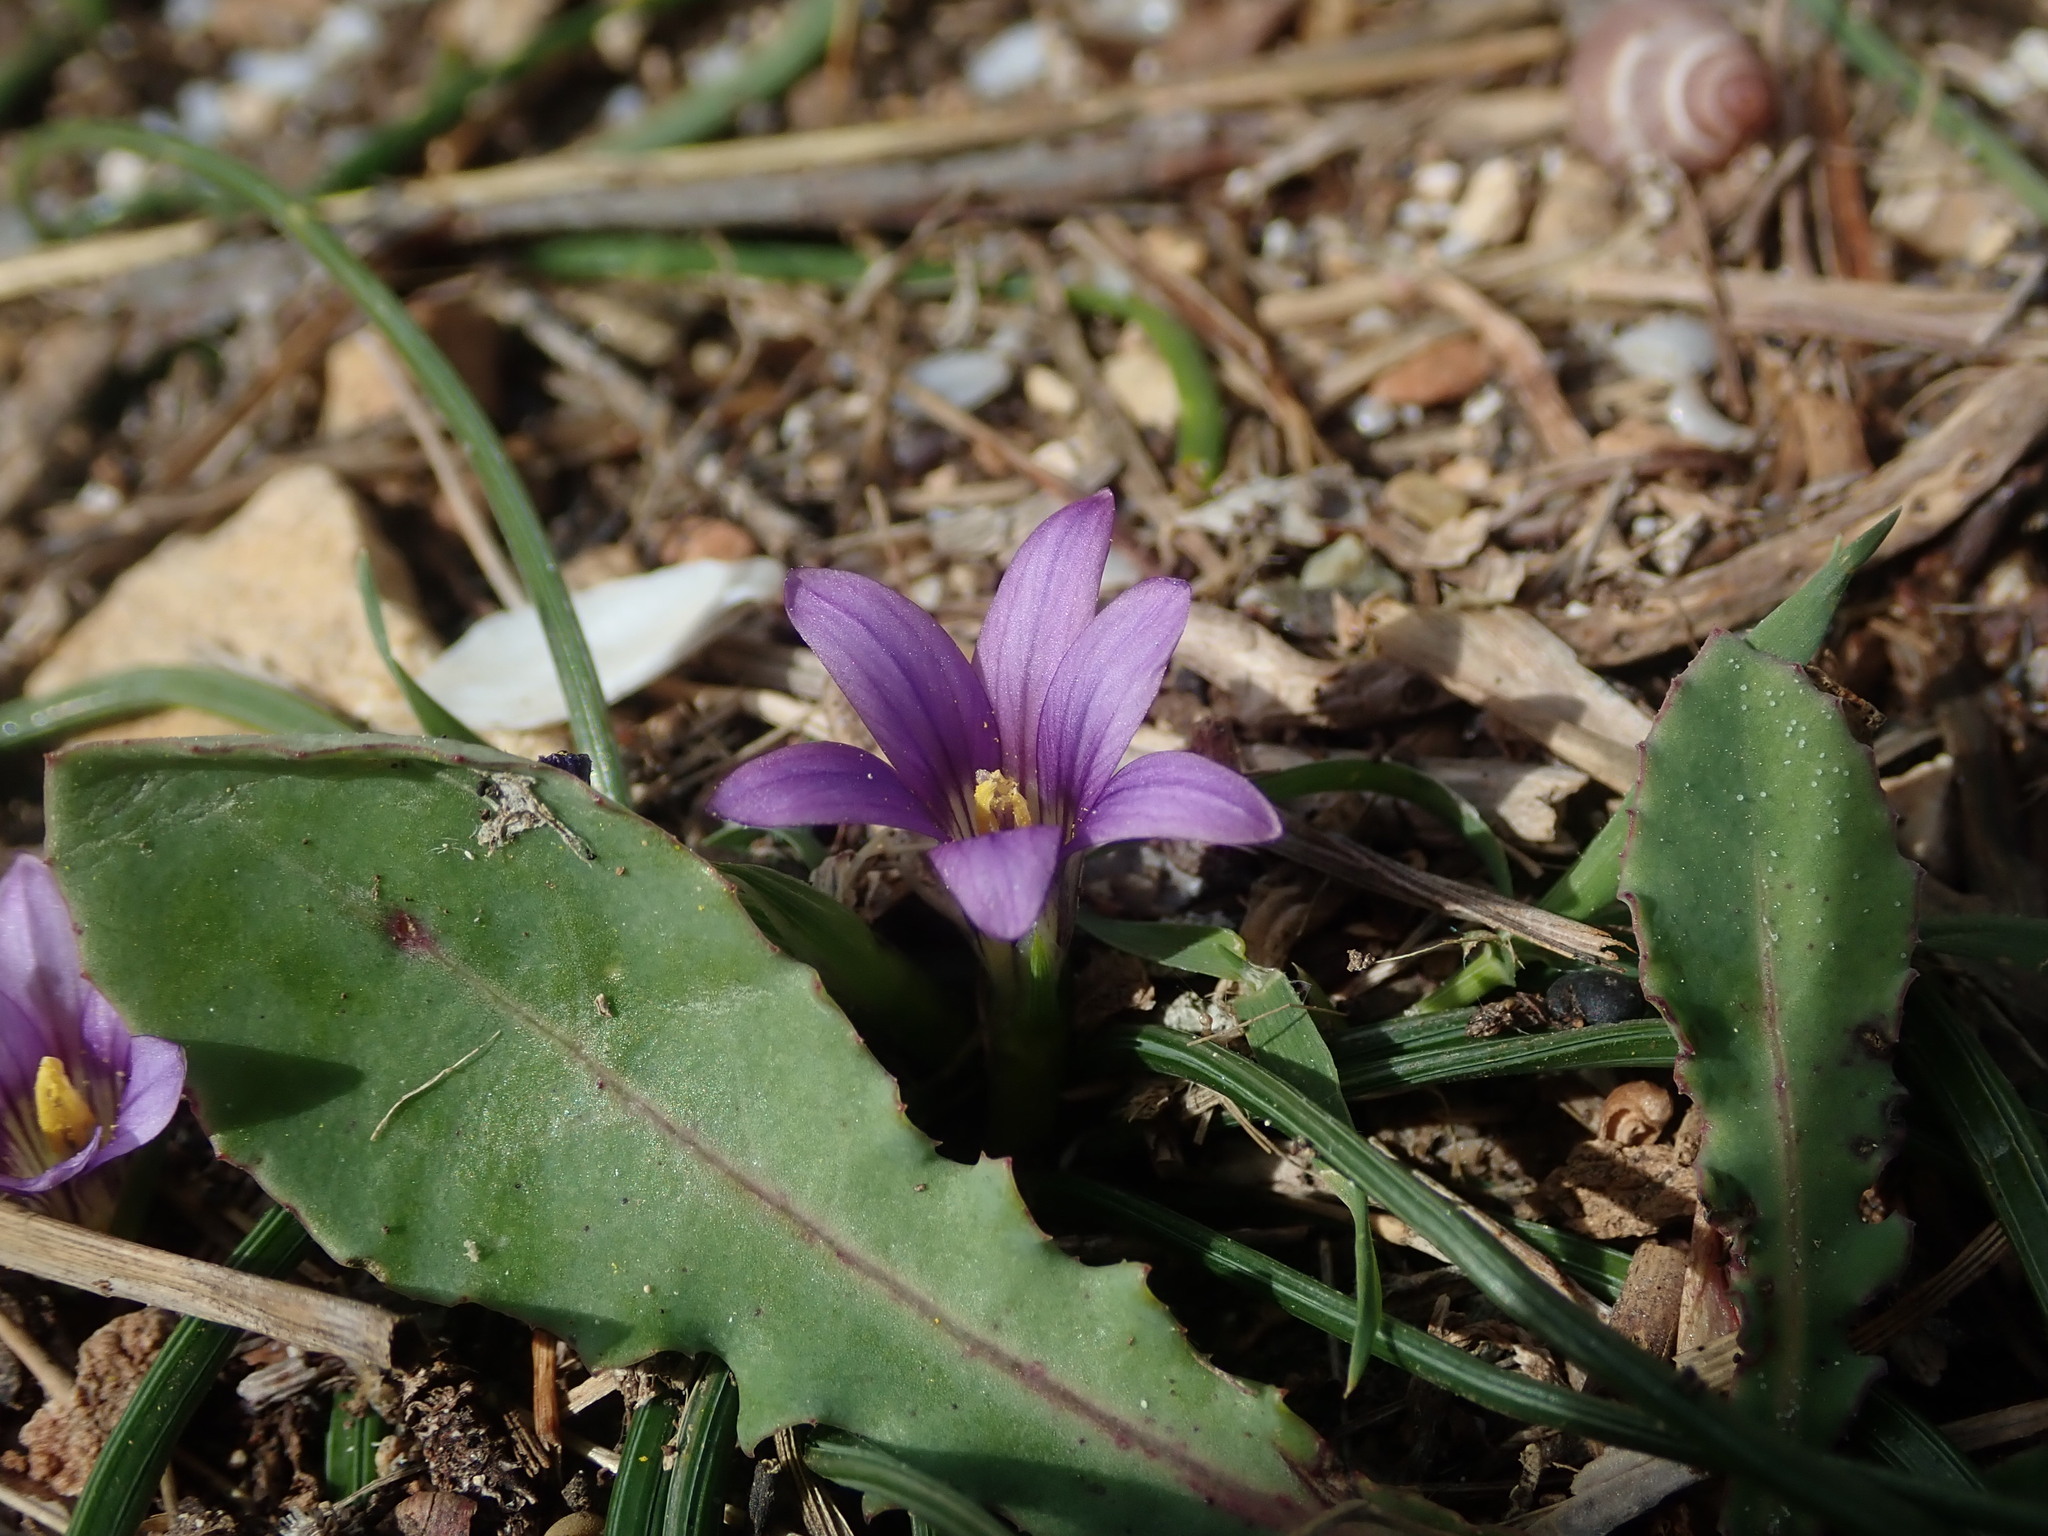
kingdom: Plantae
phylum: Tracheophyta
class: Liliopsida
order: Asparagales
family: Iridaceae
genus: Romulea
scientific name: Romulea variicolor
